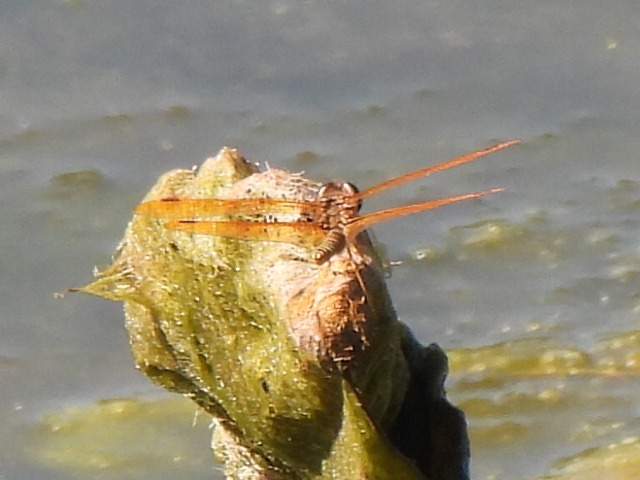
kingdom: Animalia
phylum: Arthropoda
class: Insecta
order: Odonata
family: Libellulidae
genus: Perithemis
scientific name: Perithemis tenera
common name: Eastern amberwing
